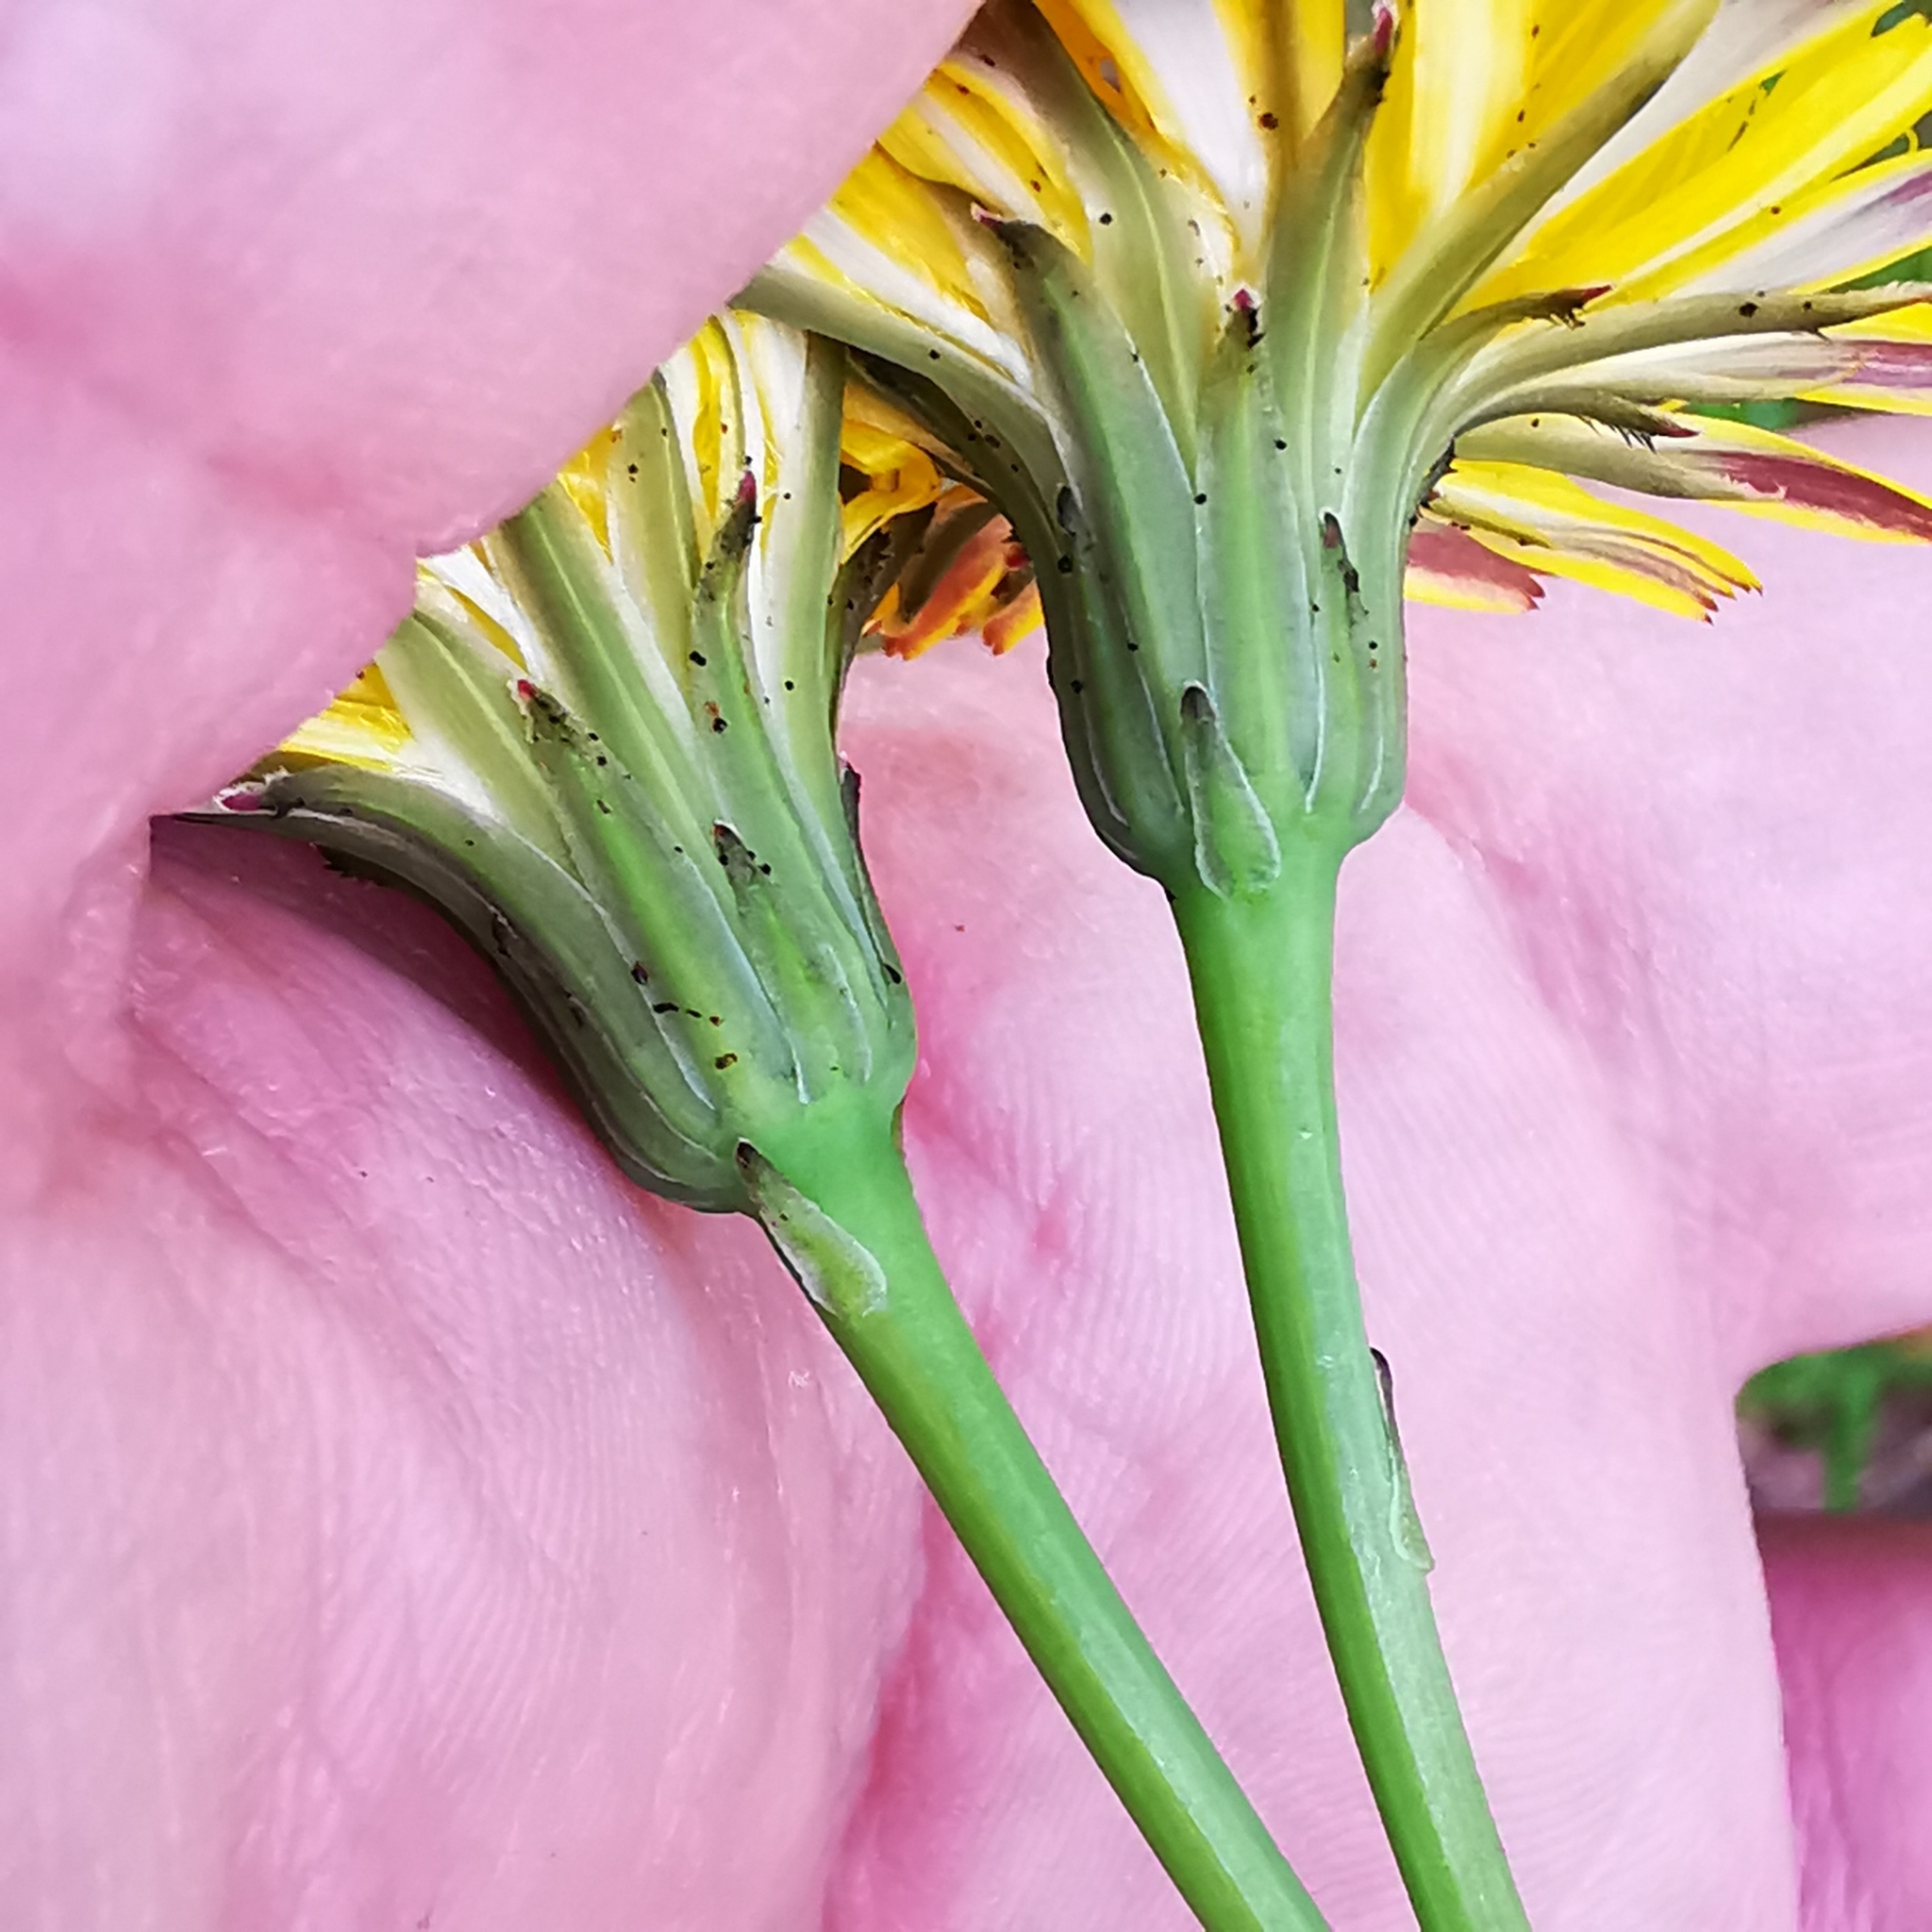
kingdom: Plantae
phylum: Tracheophyta
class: Magnoliopsida
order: Asterales
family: Asteraceae
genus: Hypochaeris
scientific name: Hypochaeris radicata
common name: Flatweed
